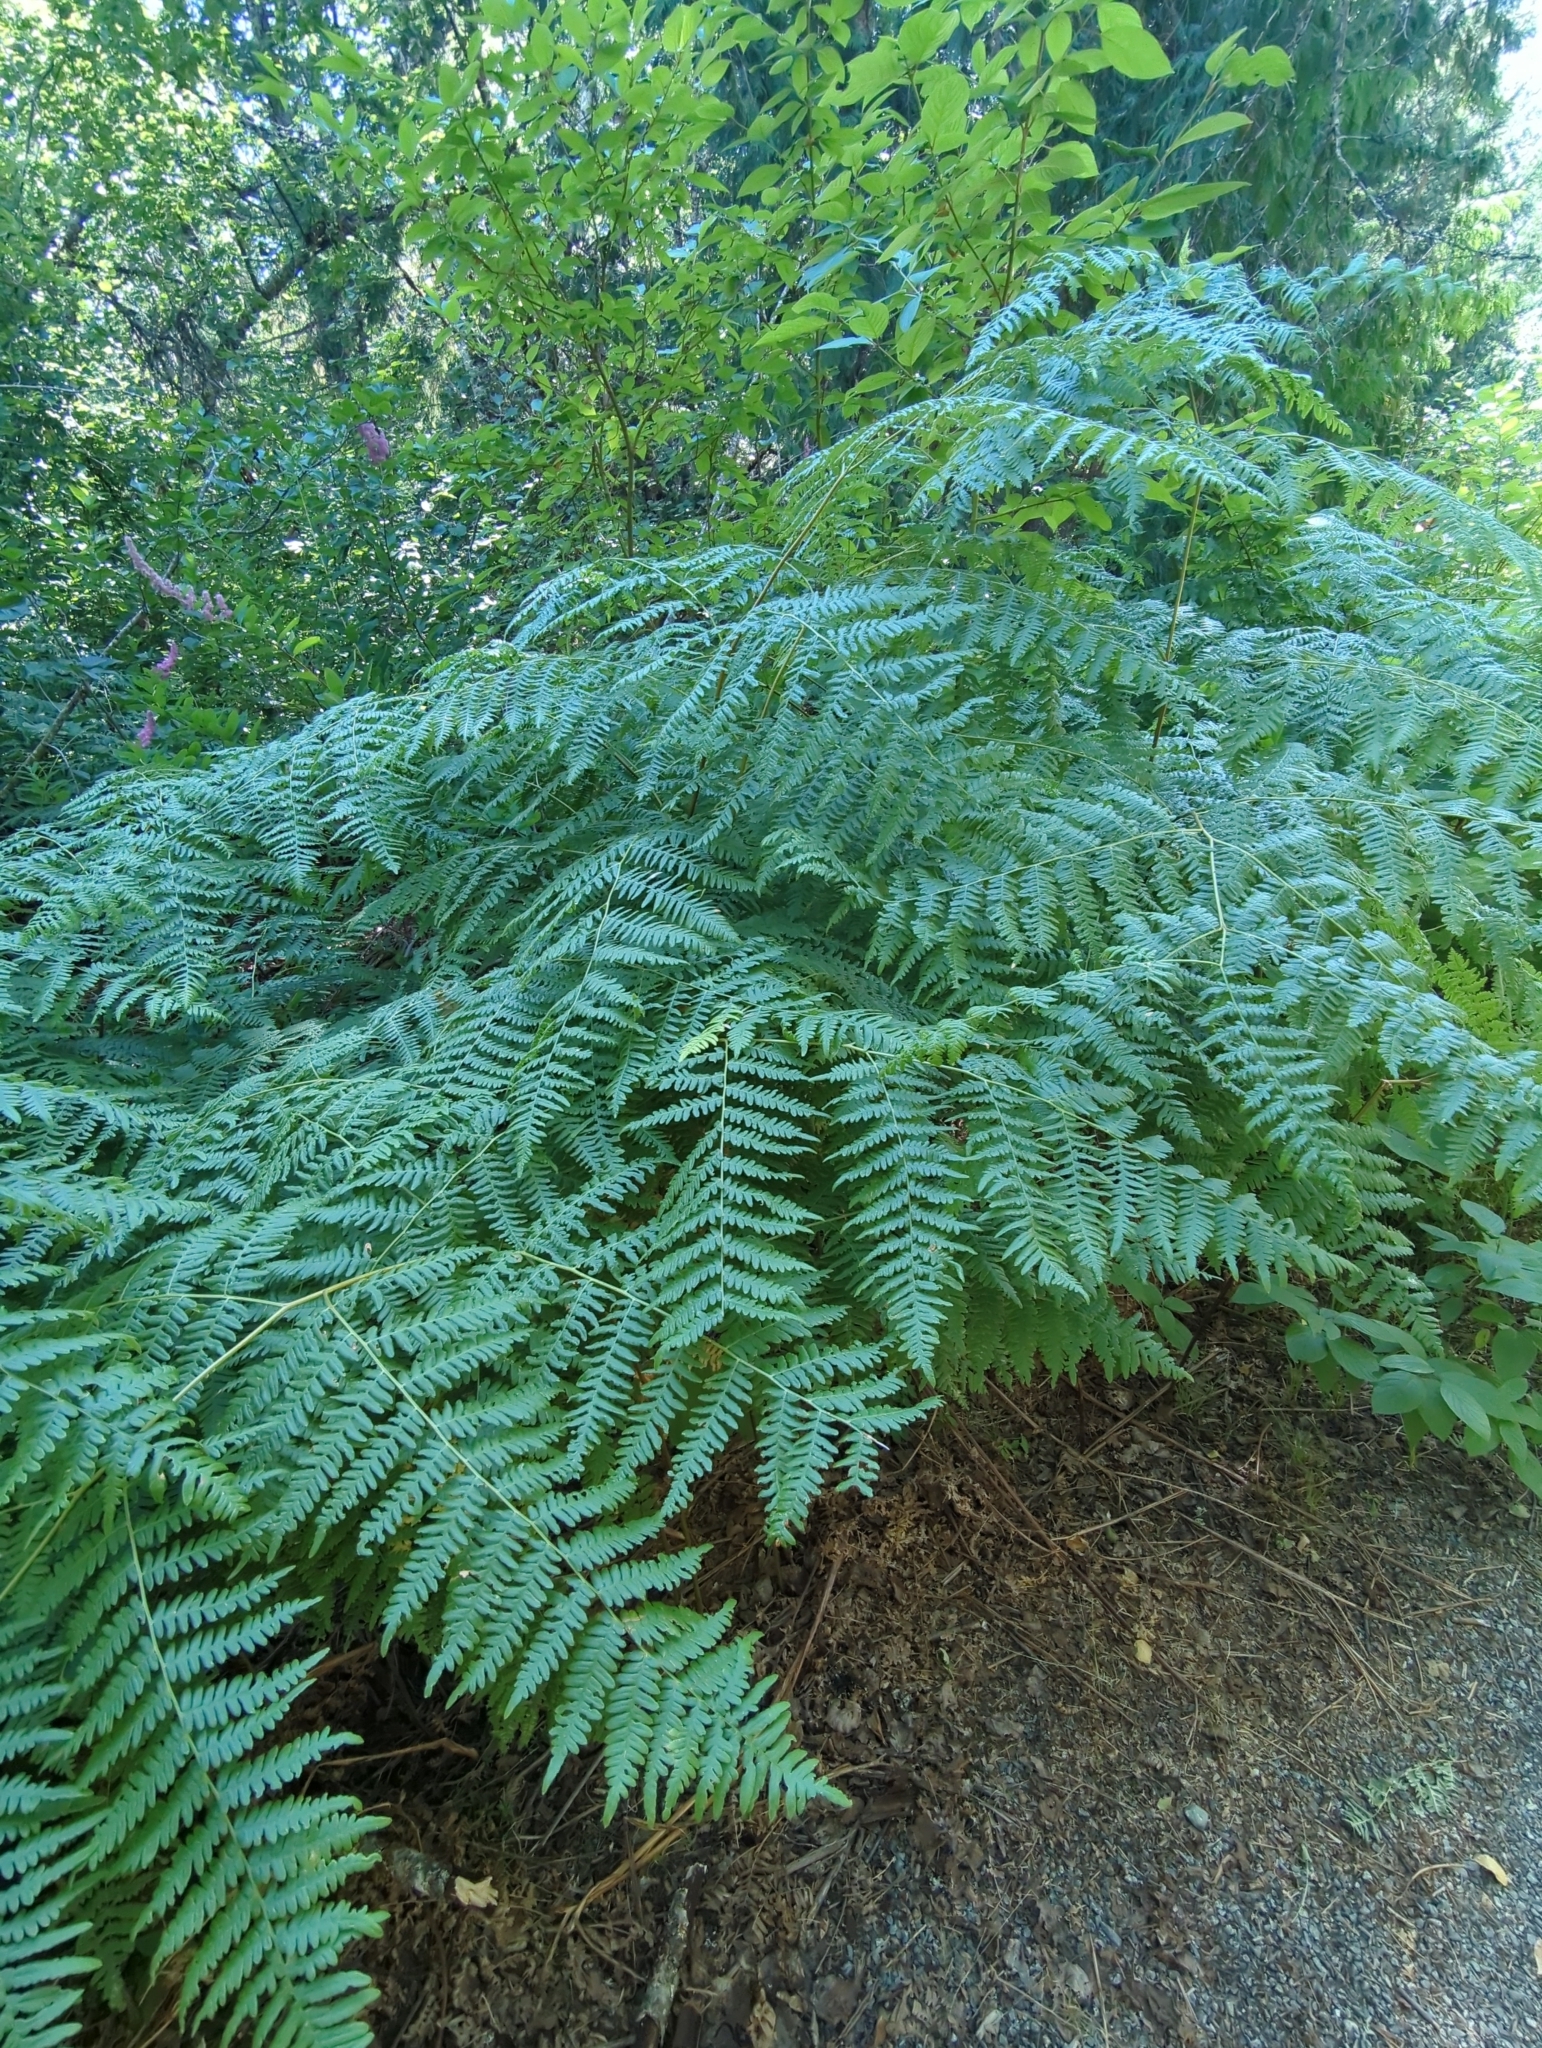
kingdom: Plantae
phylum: Tracheophyta
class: Polypodiopsida
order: Polypodiales
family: Dennstaedtiaceae
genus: Pteridium
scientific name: Pteridium aquilinum
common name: Bracken
